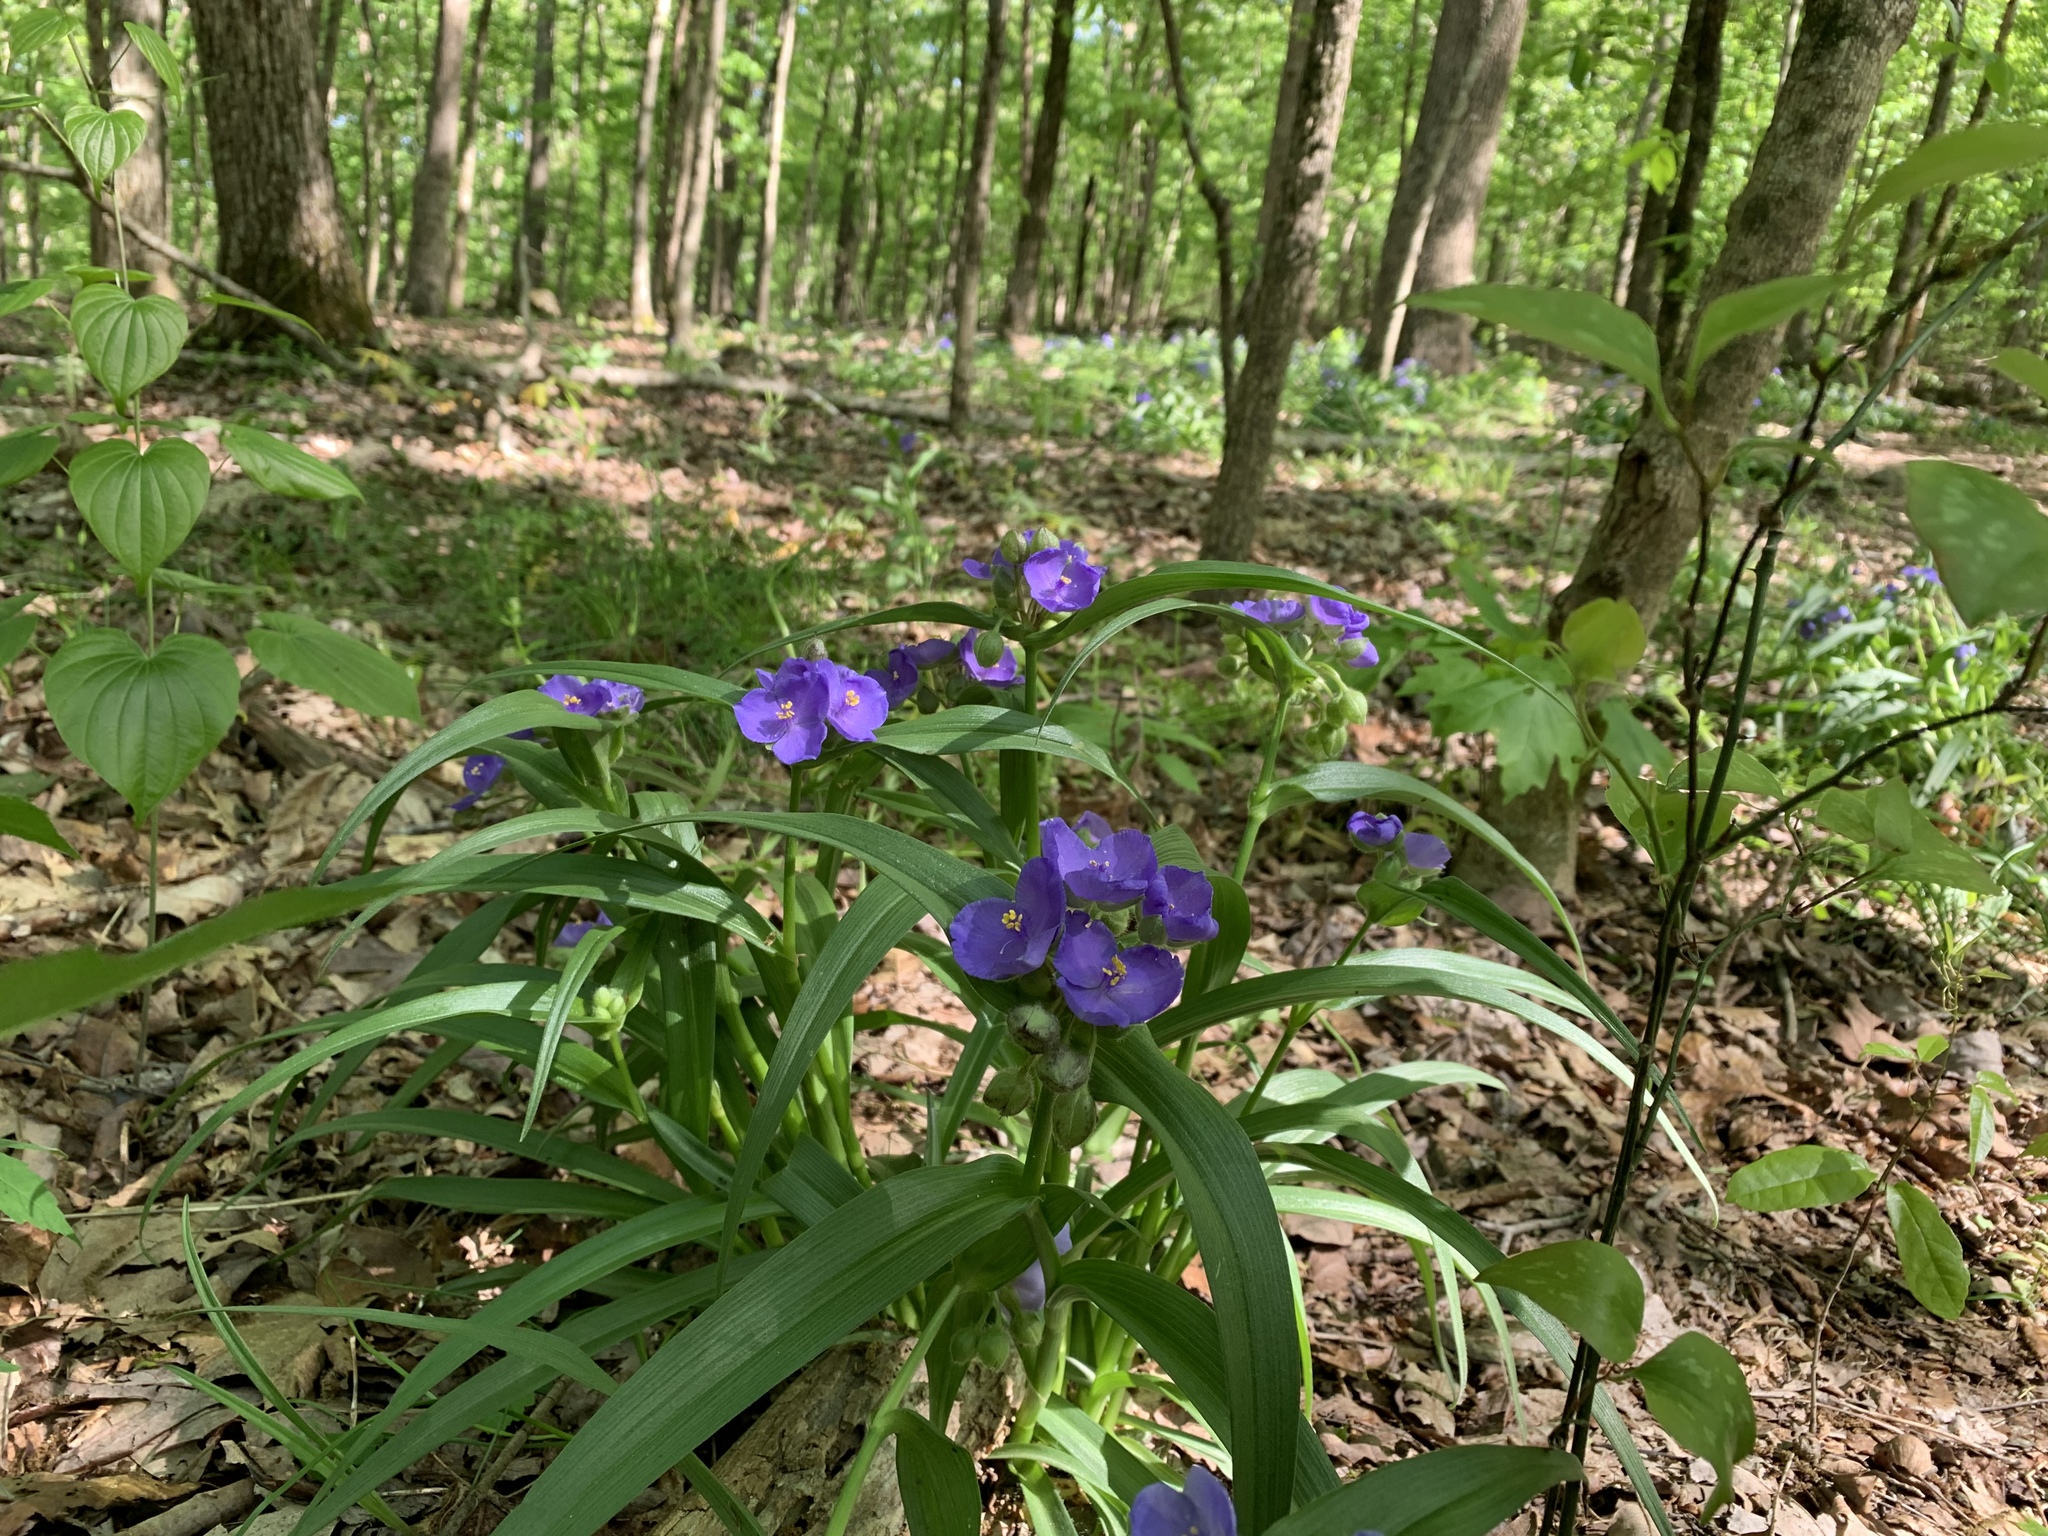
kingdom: Plantae
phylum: Tracheophyta
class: Liliopsida
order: Commelinales
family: Commelinaceae
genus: Tradescantia
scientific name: Tradescantia virginiana
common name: Spiderwort
